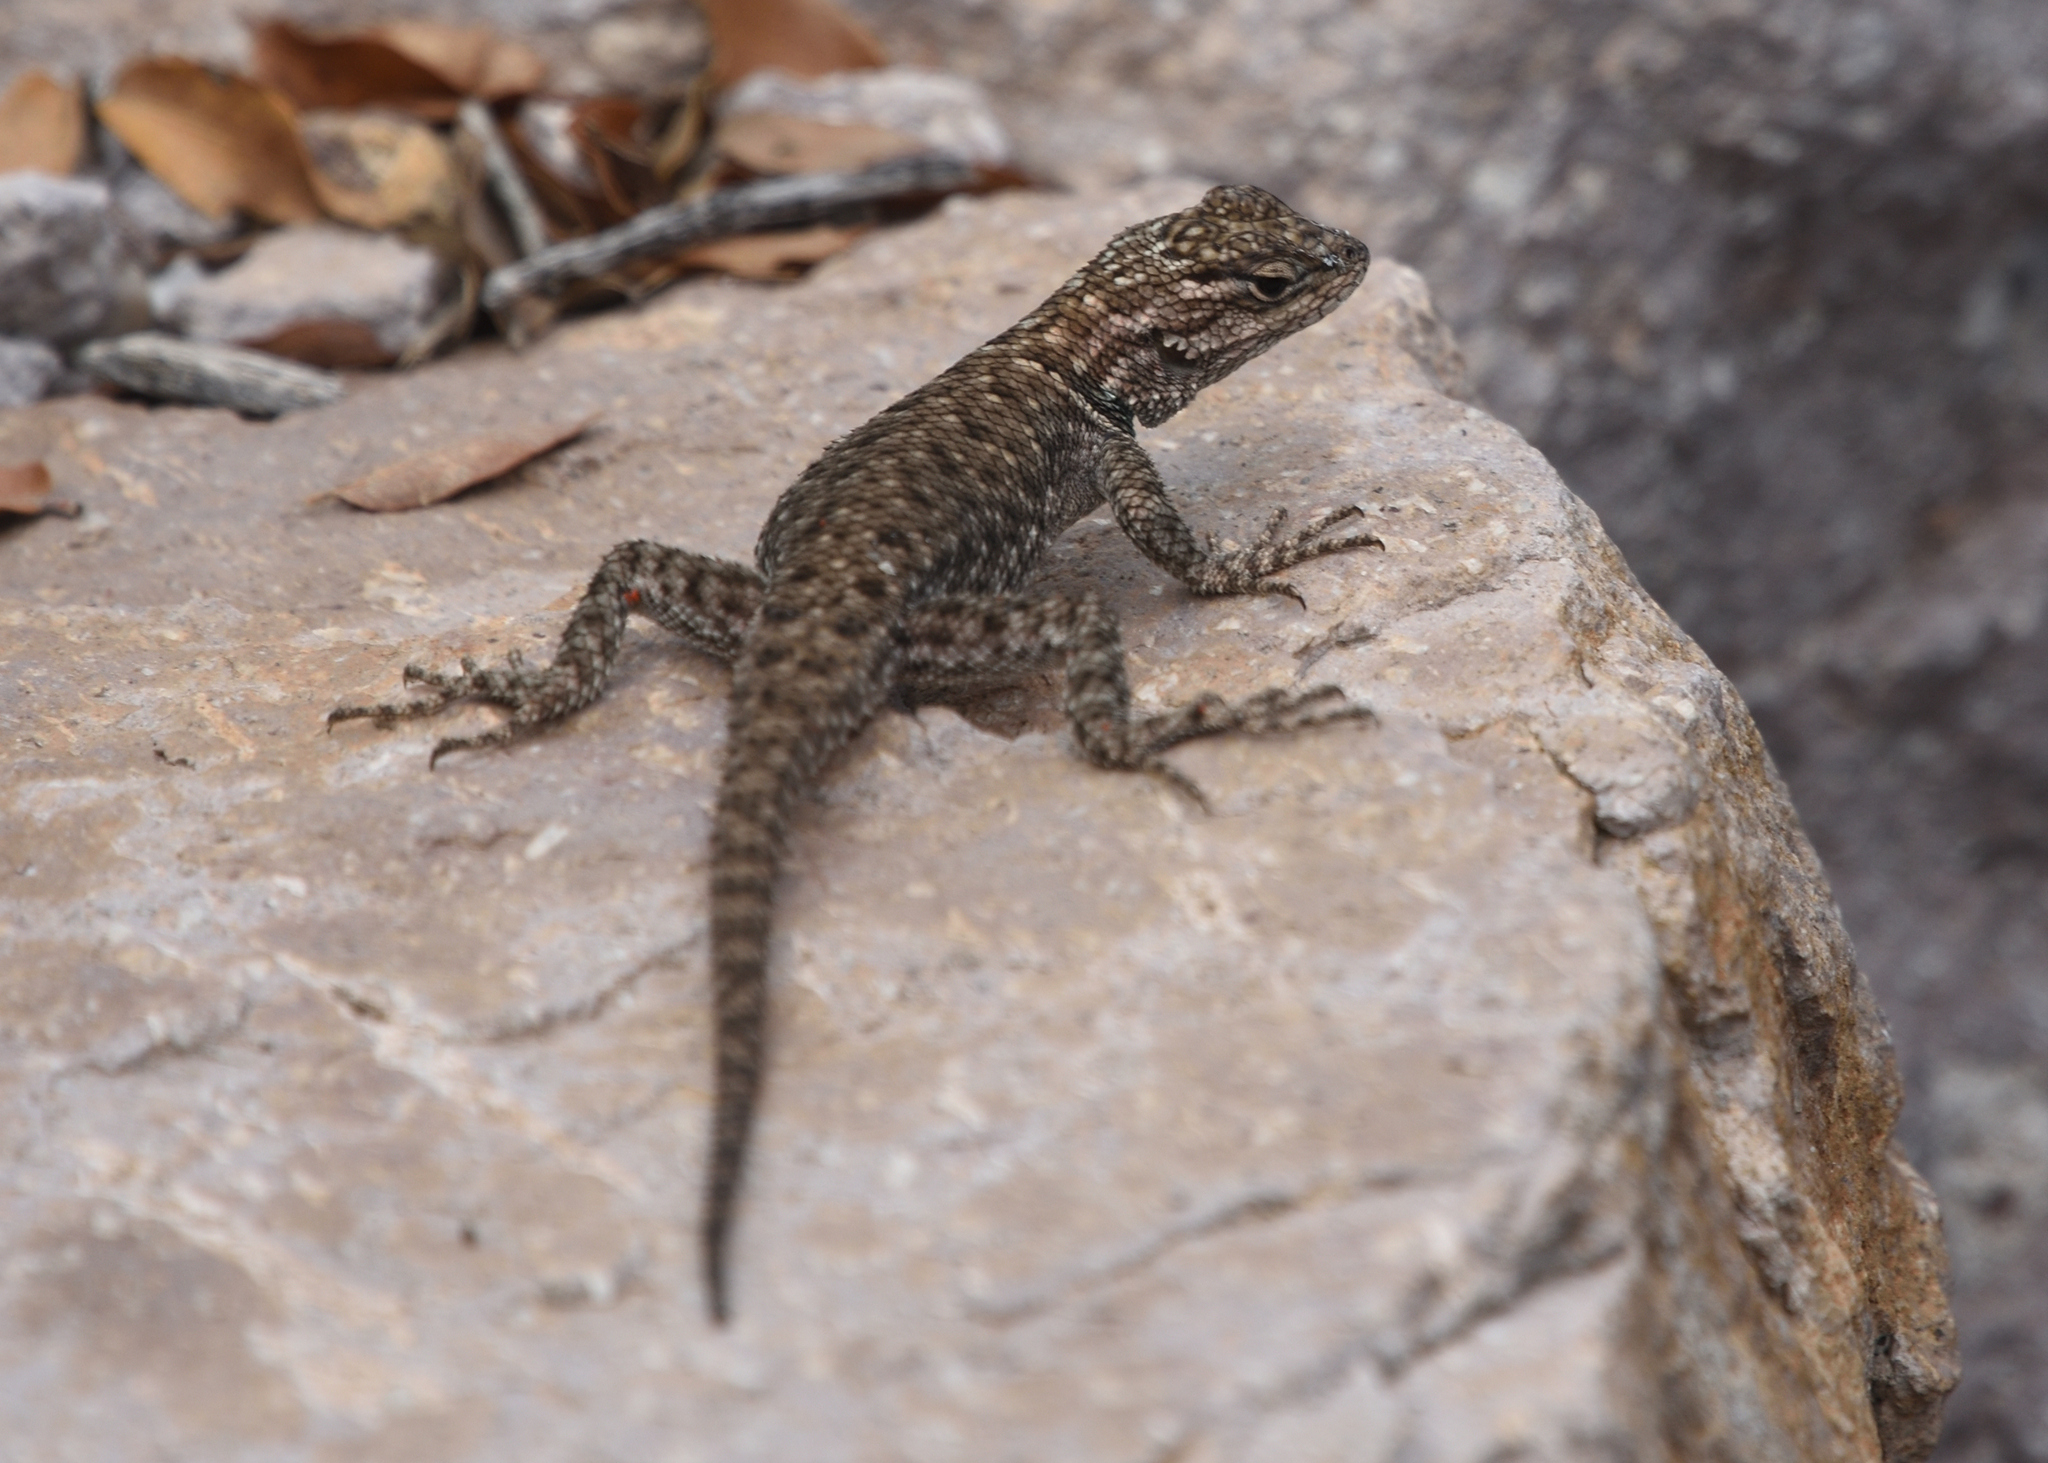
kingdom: Animalia
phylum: Chordata
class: Squamata
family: Phrynosomatidae
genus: Sceloporus
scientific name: Sceloporus jarrovii
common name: Yarrow's spiny lizard
